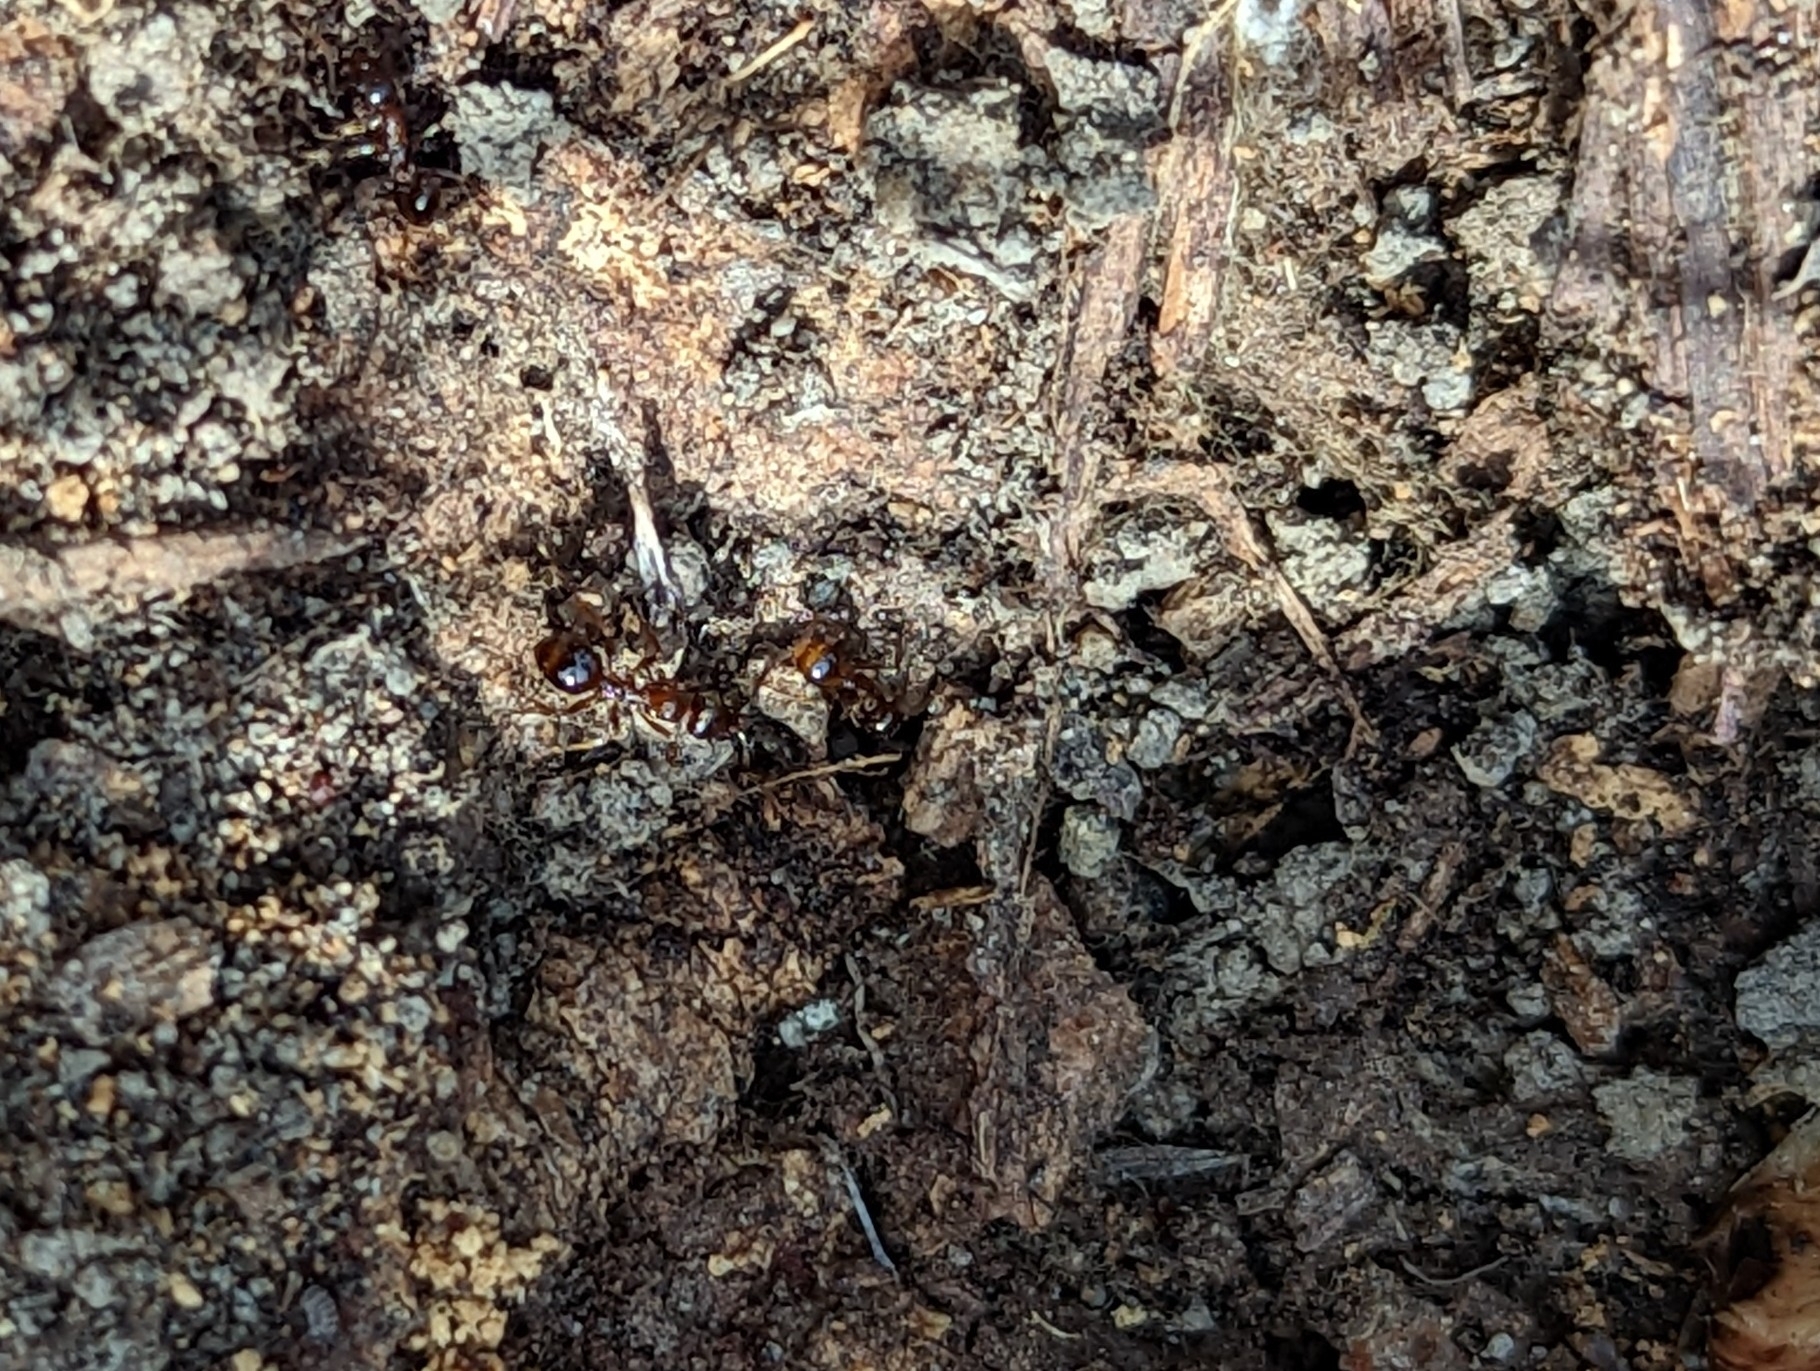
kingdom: Animalia
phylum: Arthropoda
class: Insecta
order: Hymenoptera
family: Formicidae
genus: Aphaenogaster
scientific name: Aphaenogaster occidentalis
